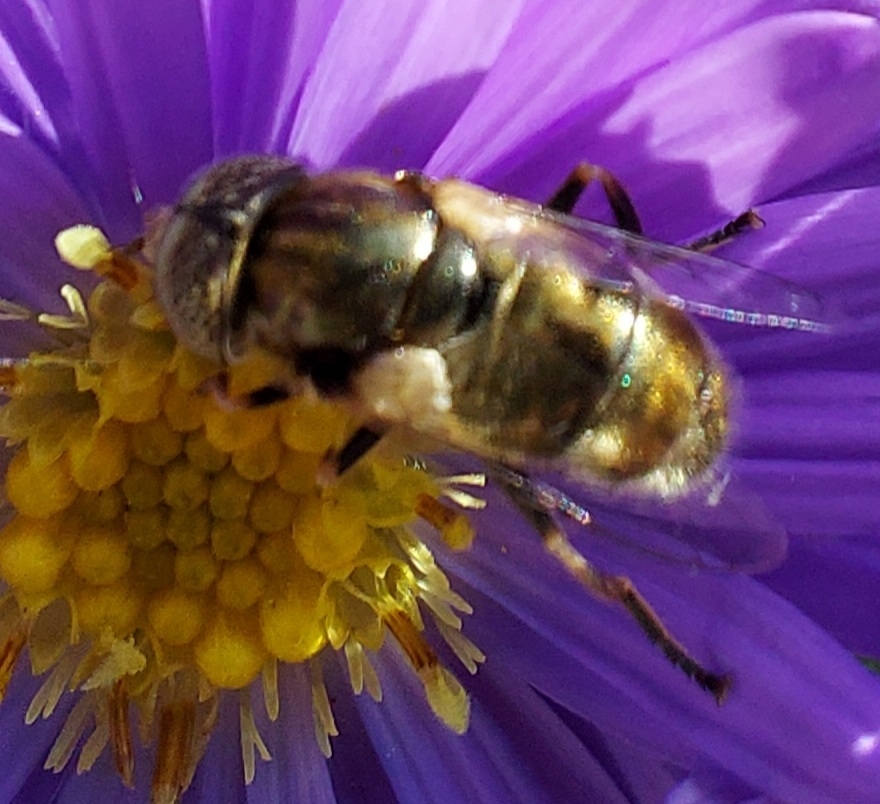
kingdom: Animalia
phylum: Arthropoda
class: Insecta
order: Diptera
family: Syrphidae
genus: Eristalinus
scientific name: Eristalinus aeneus
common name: Syrphid fly
